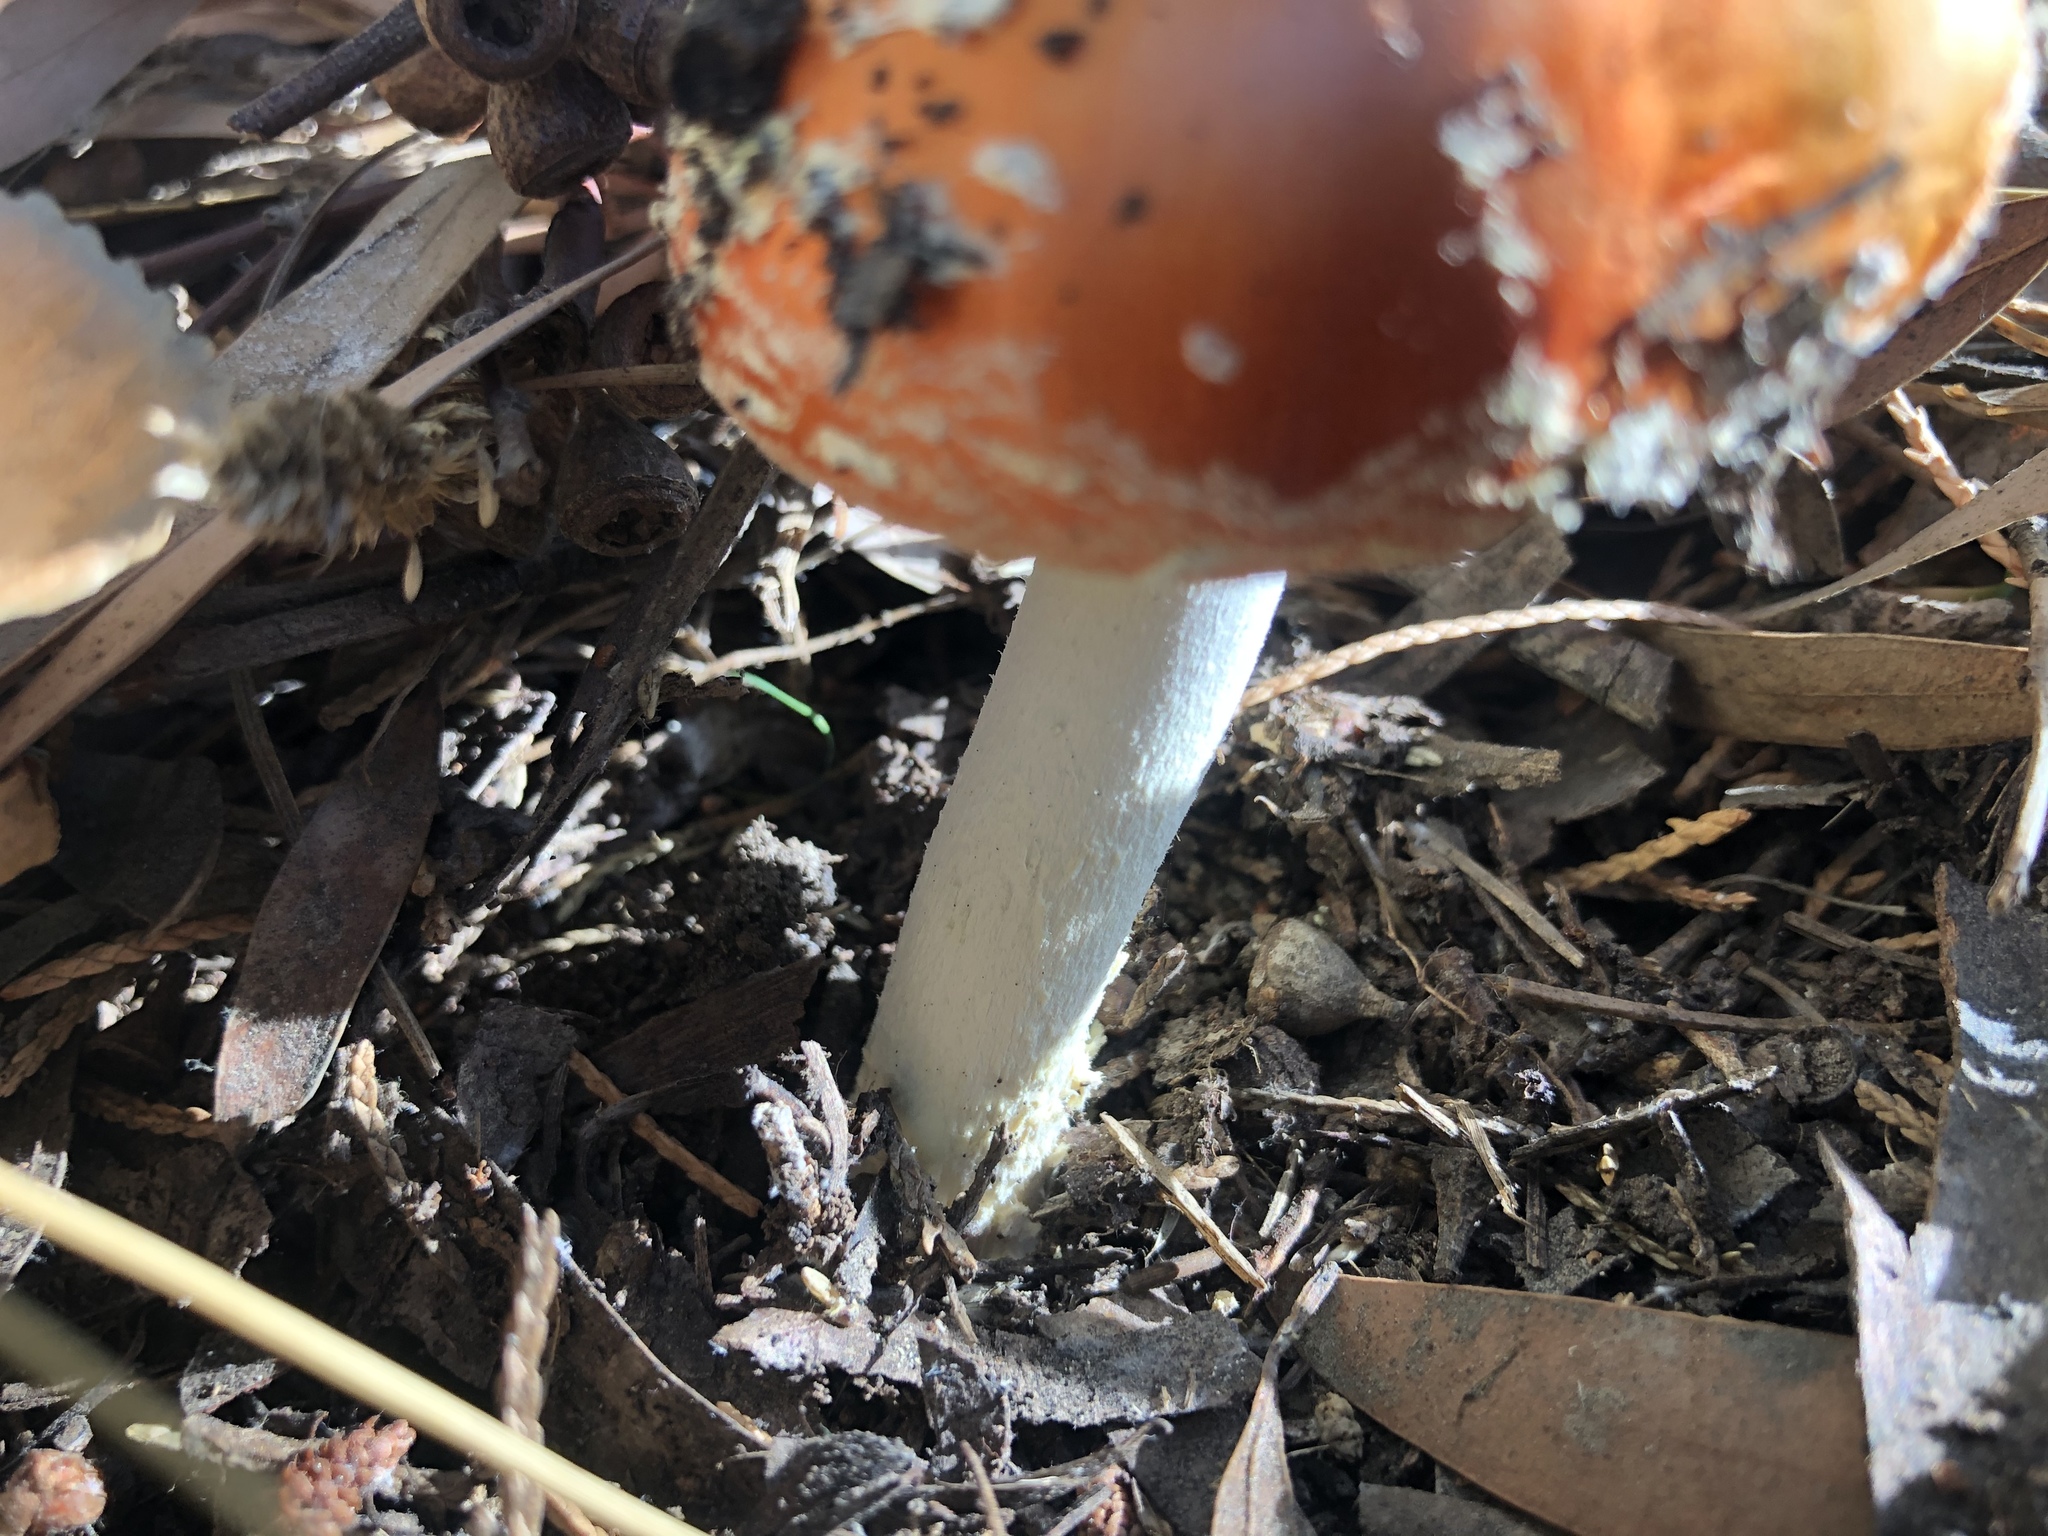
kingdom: Fungi
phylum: Basidiomycota
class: Agaricomycetes
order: Agaricales
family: Amanitaceae
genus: Amanita
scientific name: Amanita muscaria
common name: Fly agaric
